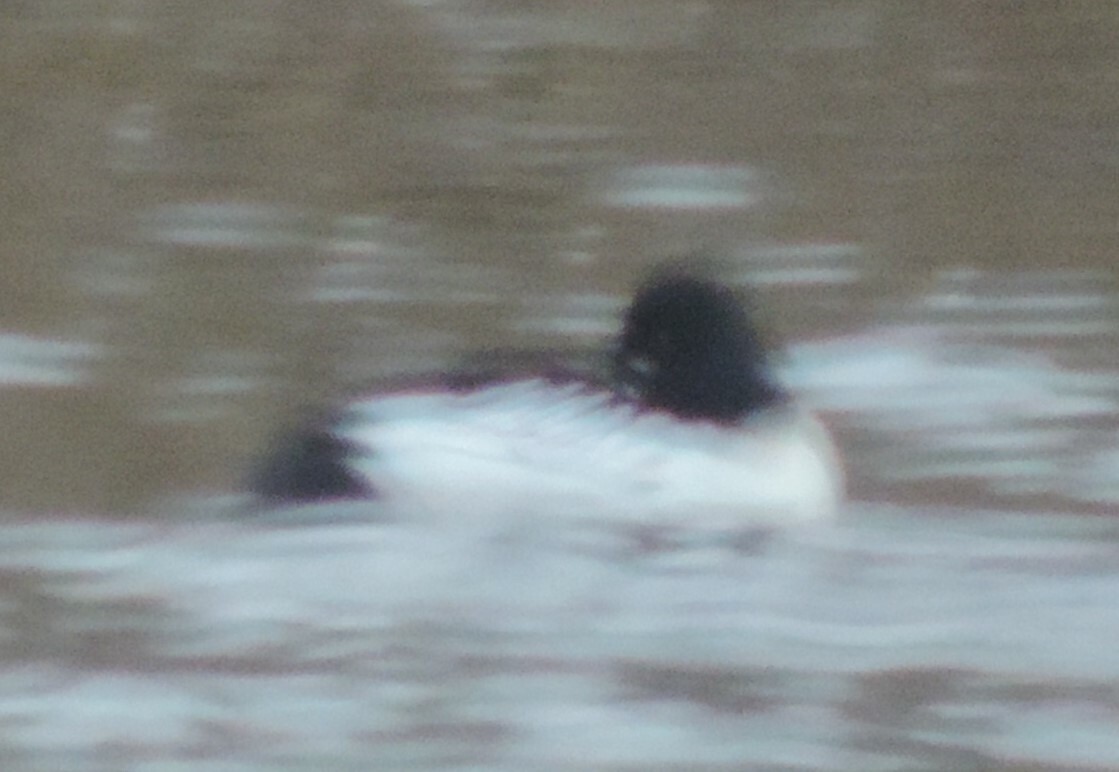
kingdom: Animalia
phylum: Chordata
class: Aves
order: Anseriformes
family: Anatidae
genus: Bucephala
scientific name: Bucephala clangula
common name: Common goldeneye
